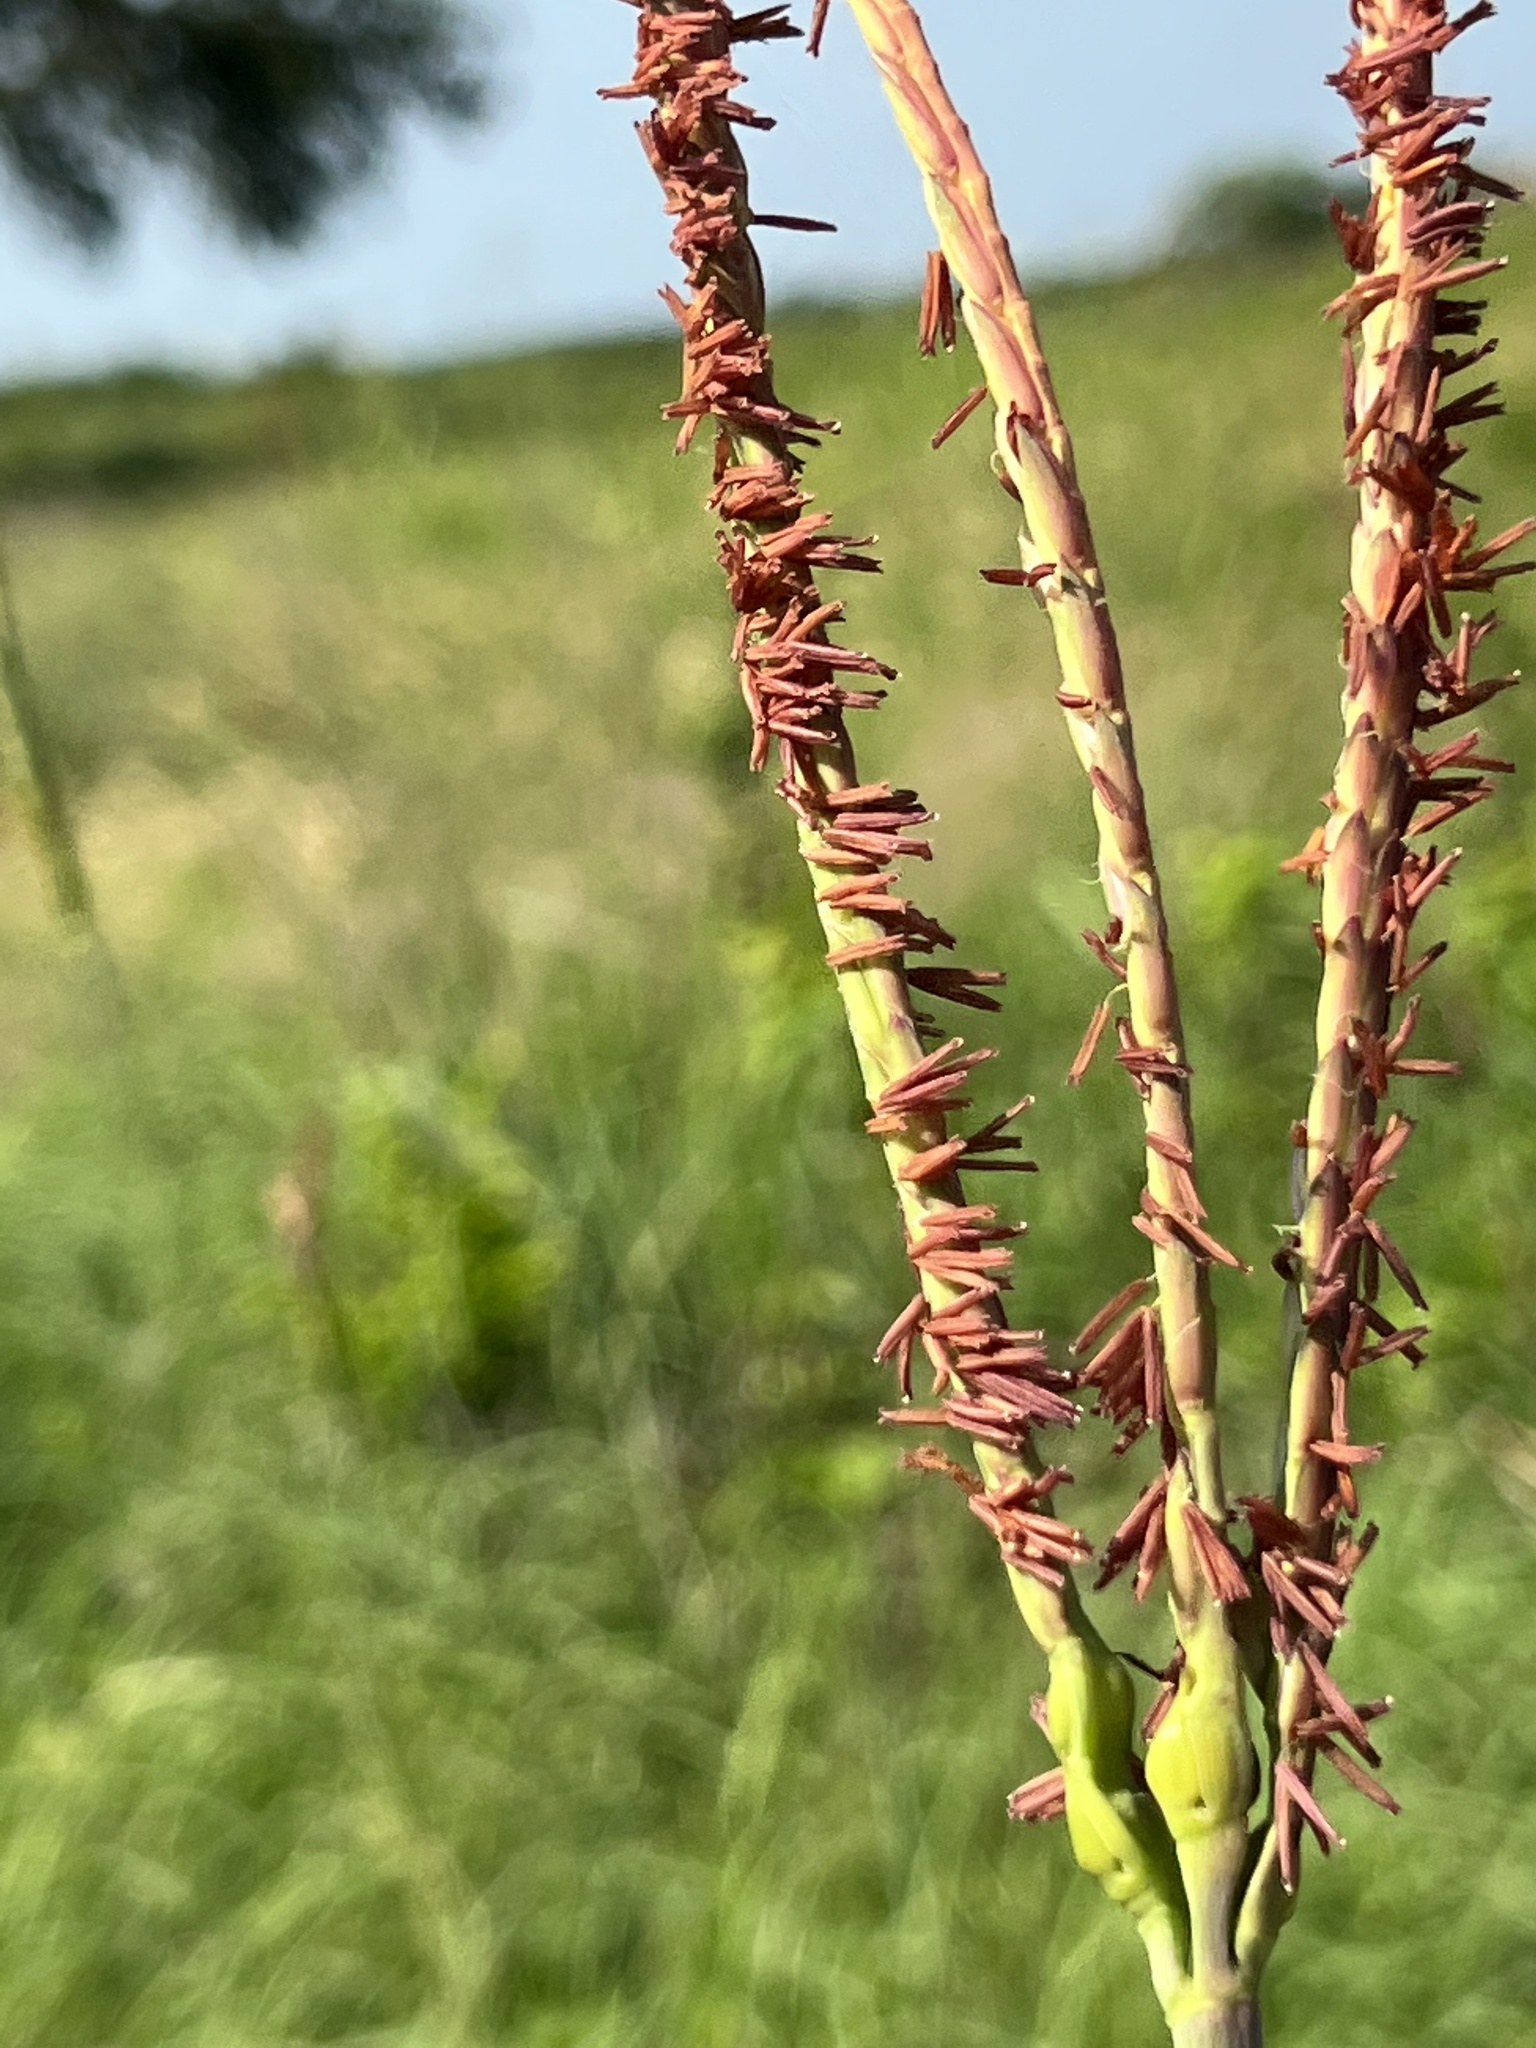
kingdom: Plantae
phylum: Tracheophyta
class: Liliopsida
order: Poales
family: Poaceae
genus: Tripsacum
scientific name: Tripsacum dactyloides
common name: Buffalo-grass
